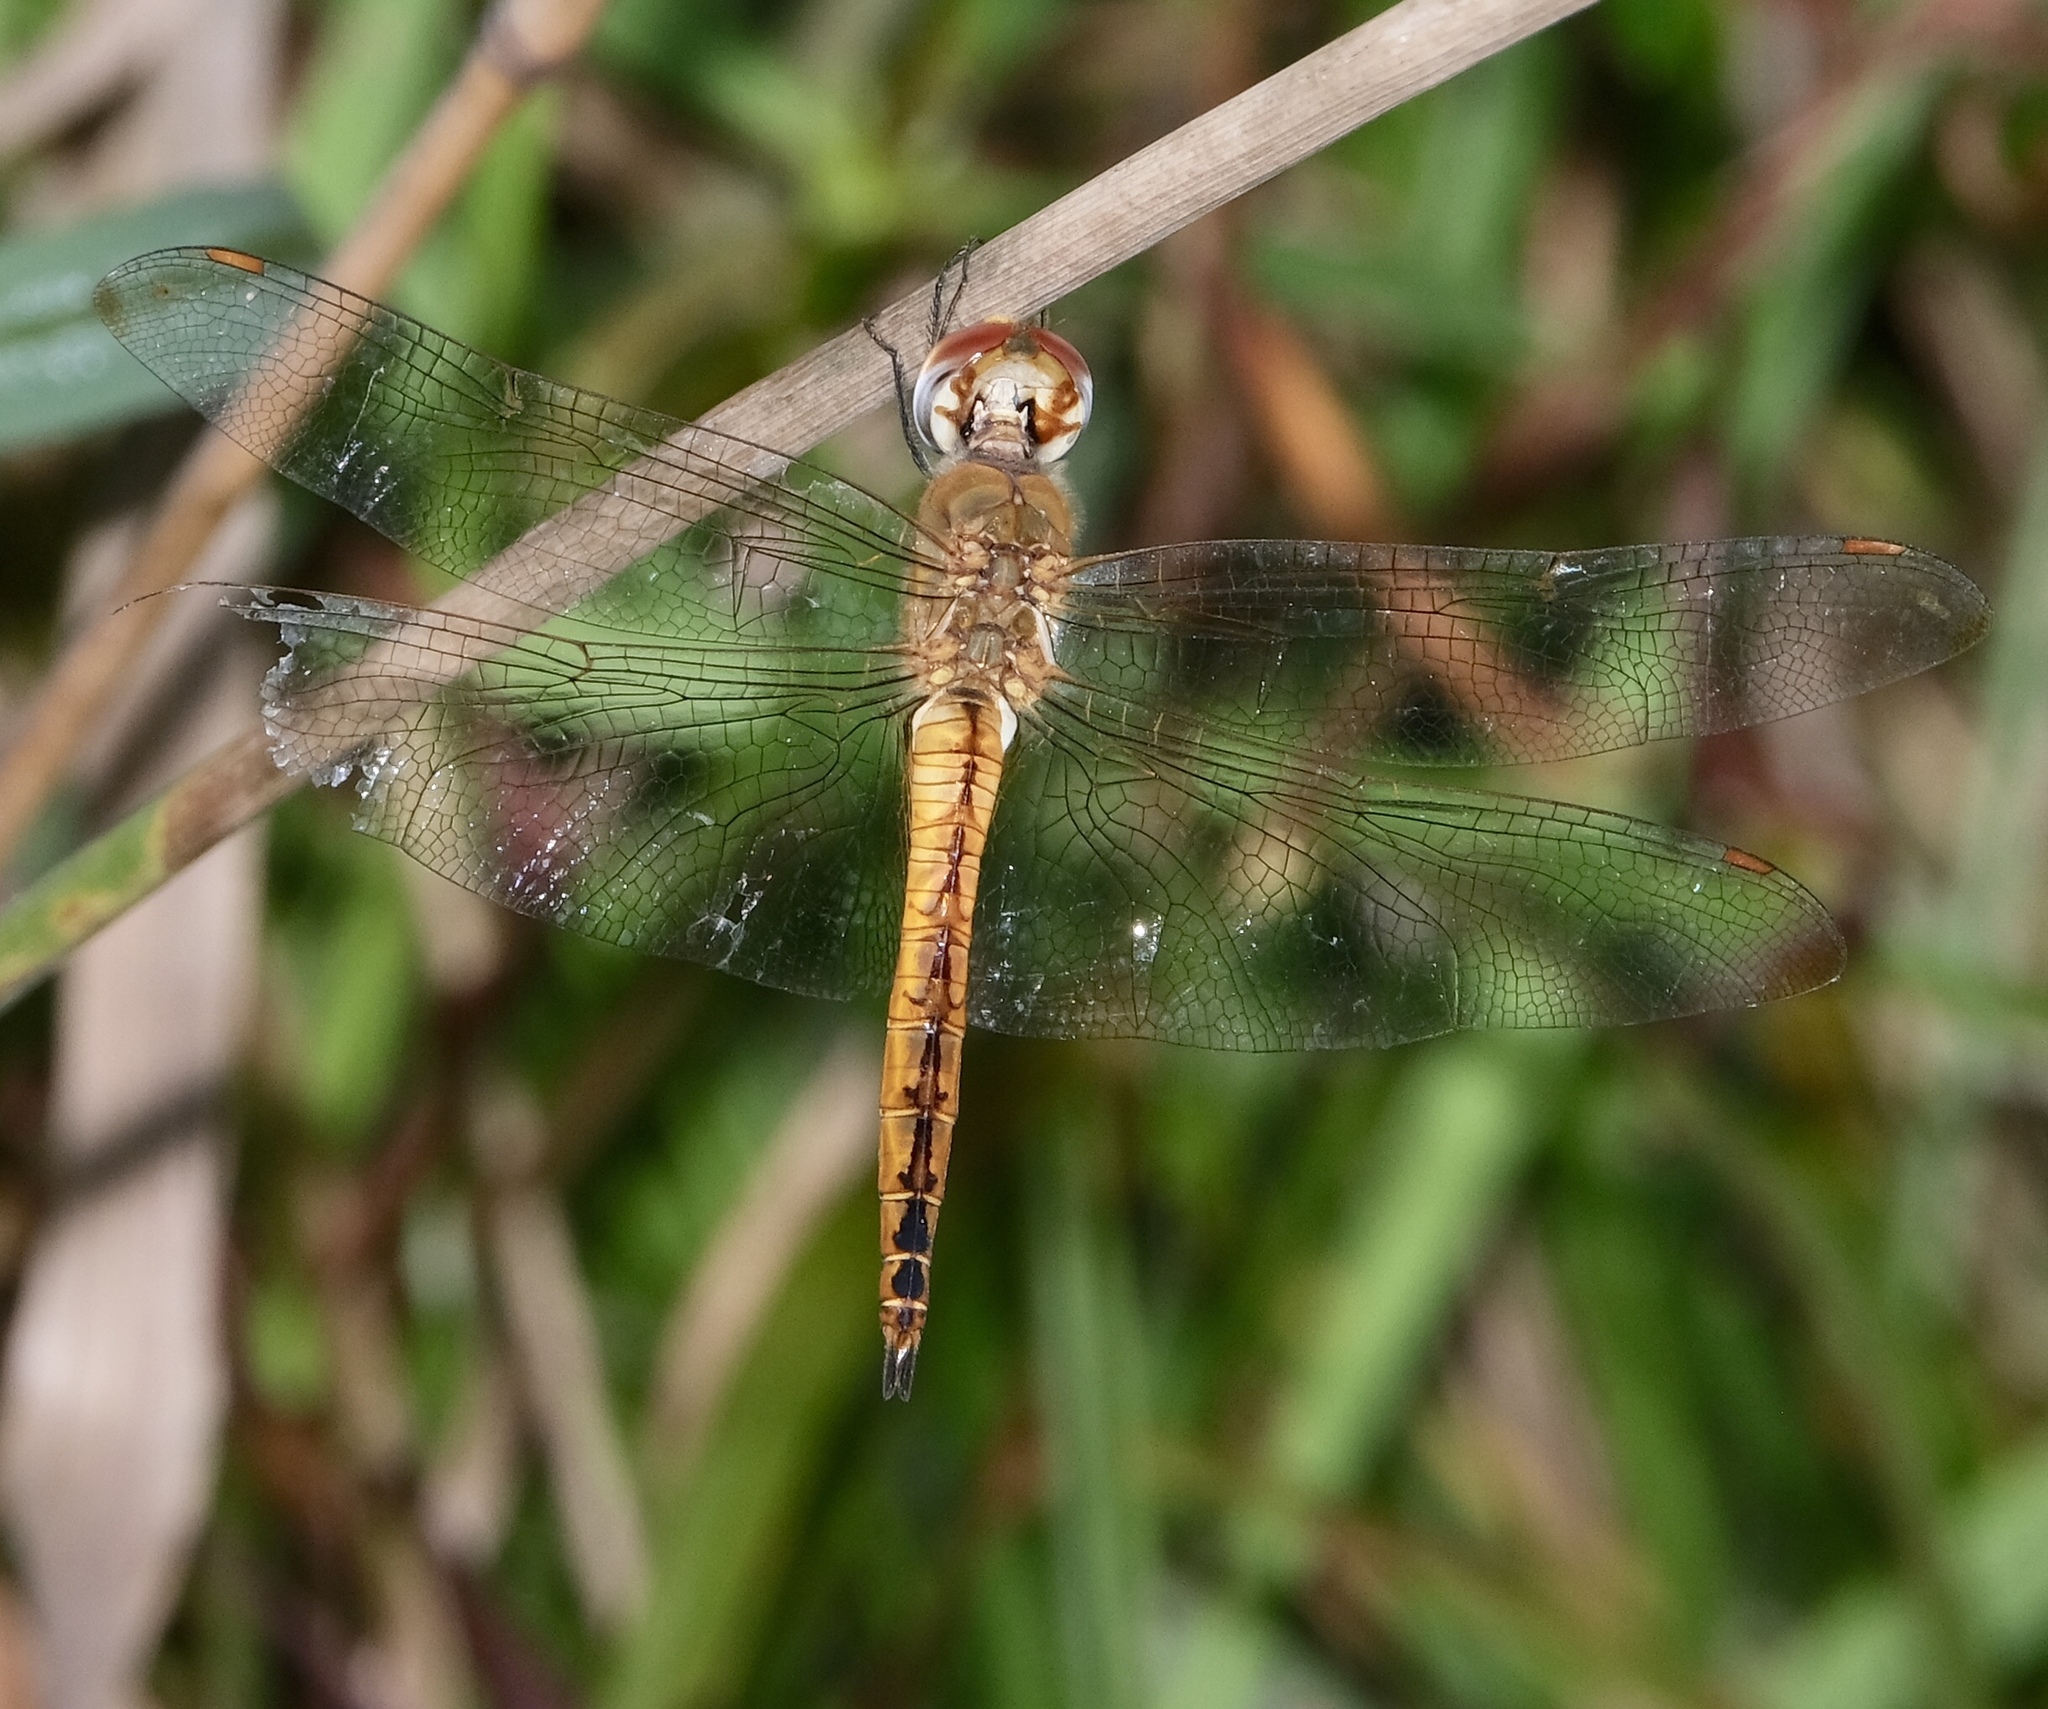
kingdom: Animalia
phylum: Arthropoda
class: Insecta
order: Odonata
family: Libellulidae
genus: Pantala
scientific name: Pantala flavescens
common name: Wandering glider
